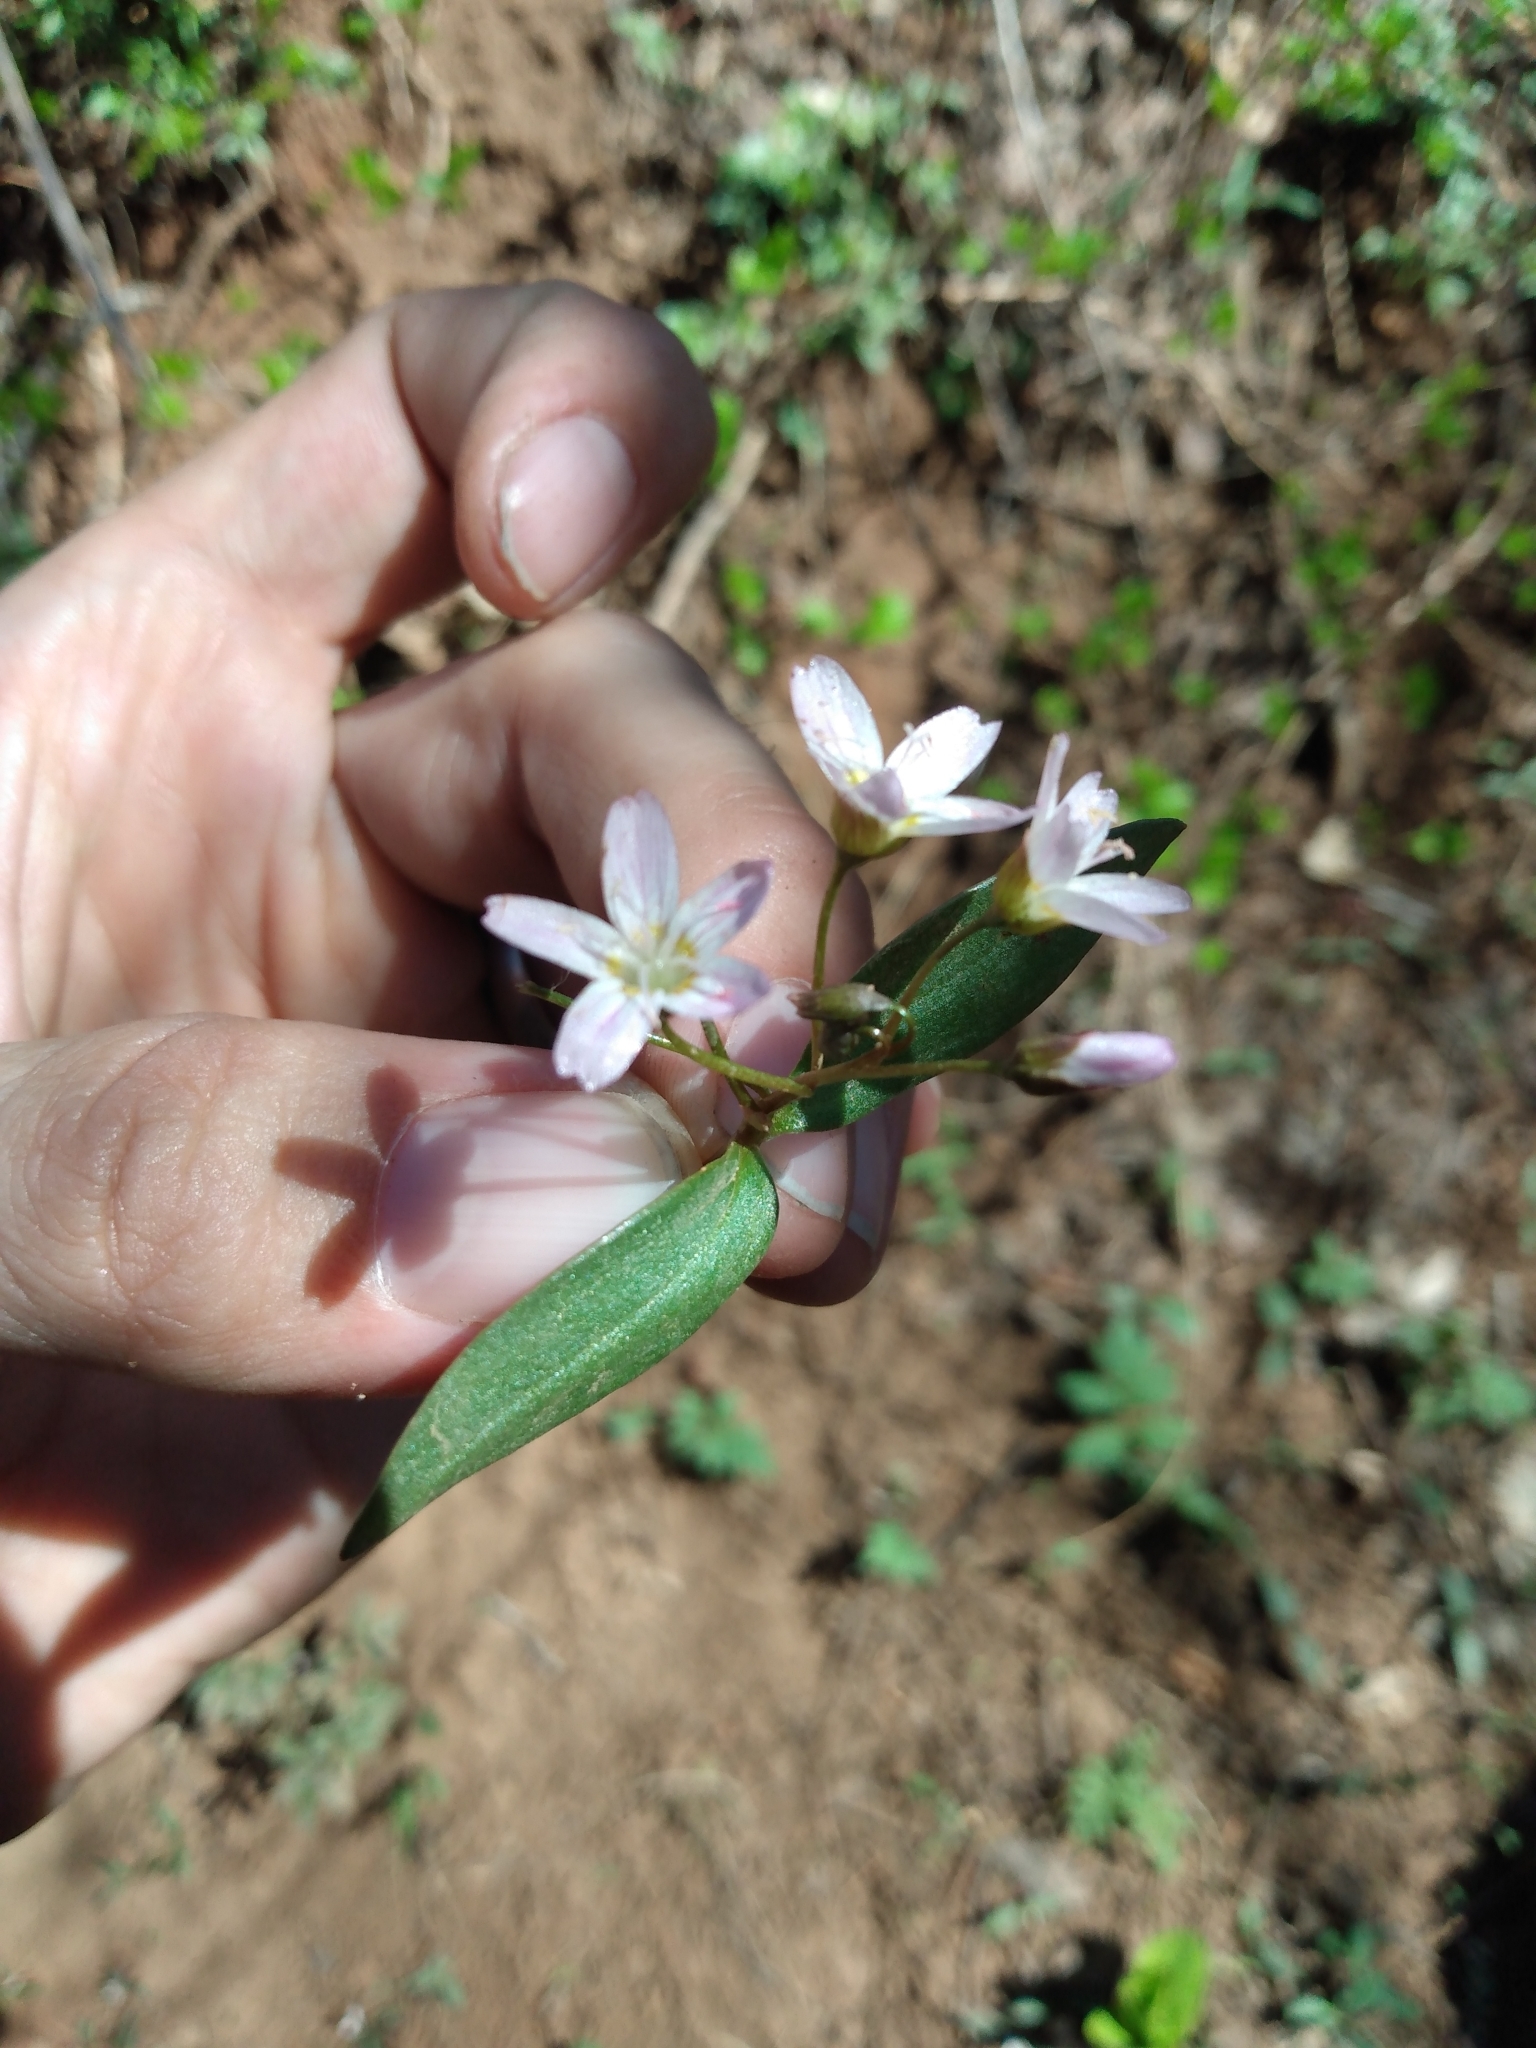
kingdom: Plantae
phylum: Tracheophyta
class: Magnoliopsida
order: Caryophyllales
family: Montiaceae
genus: Claytonia
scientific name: Claytonia lanceolata
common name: Western spring-beauty
